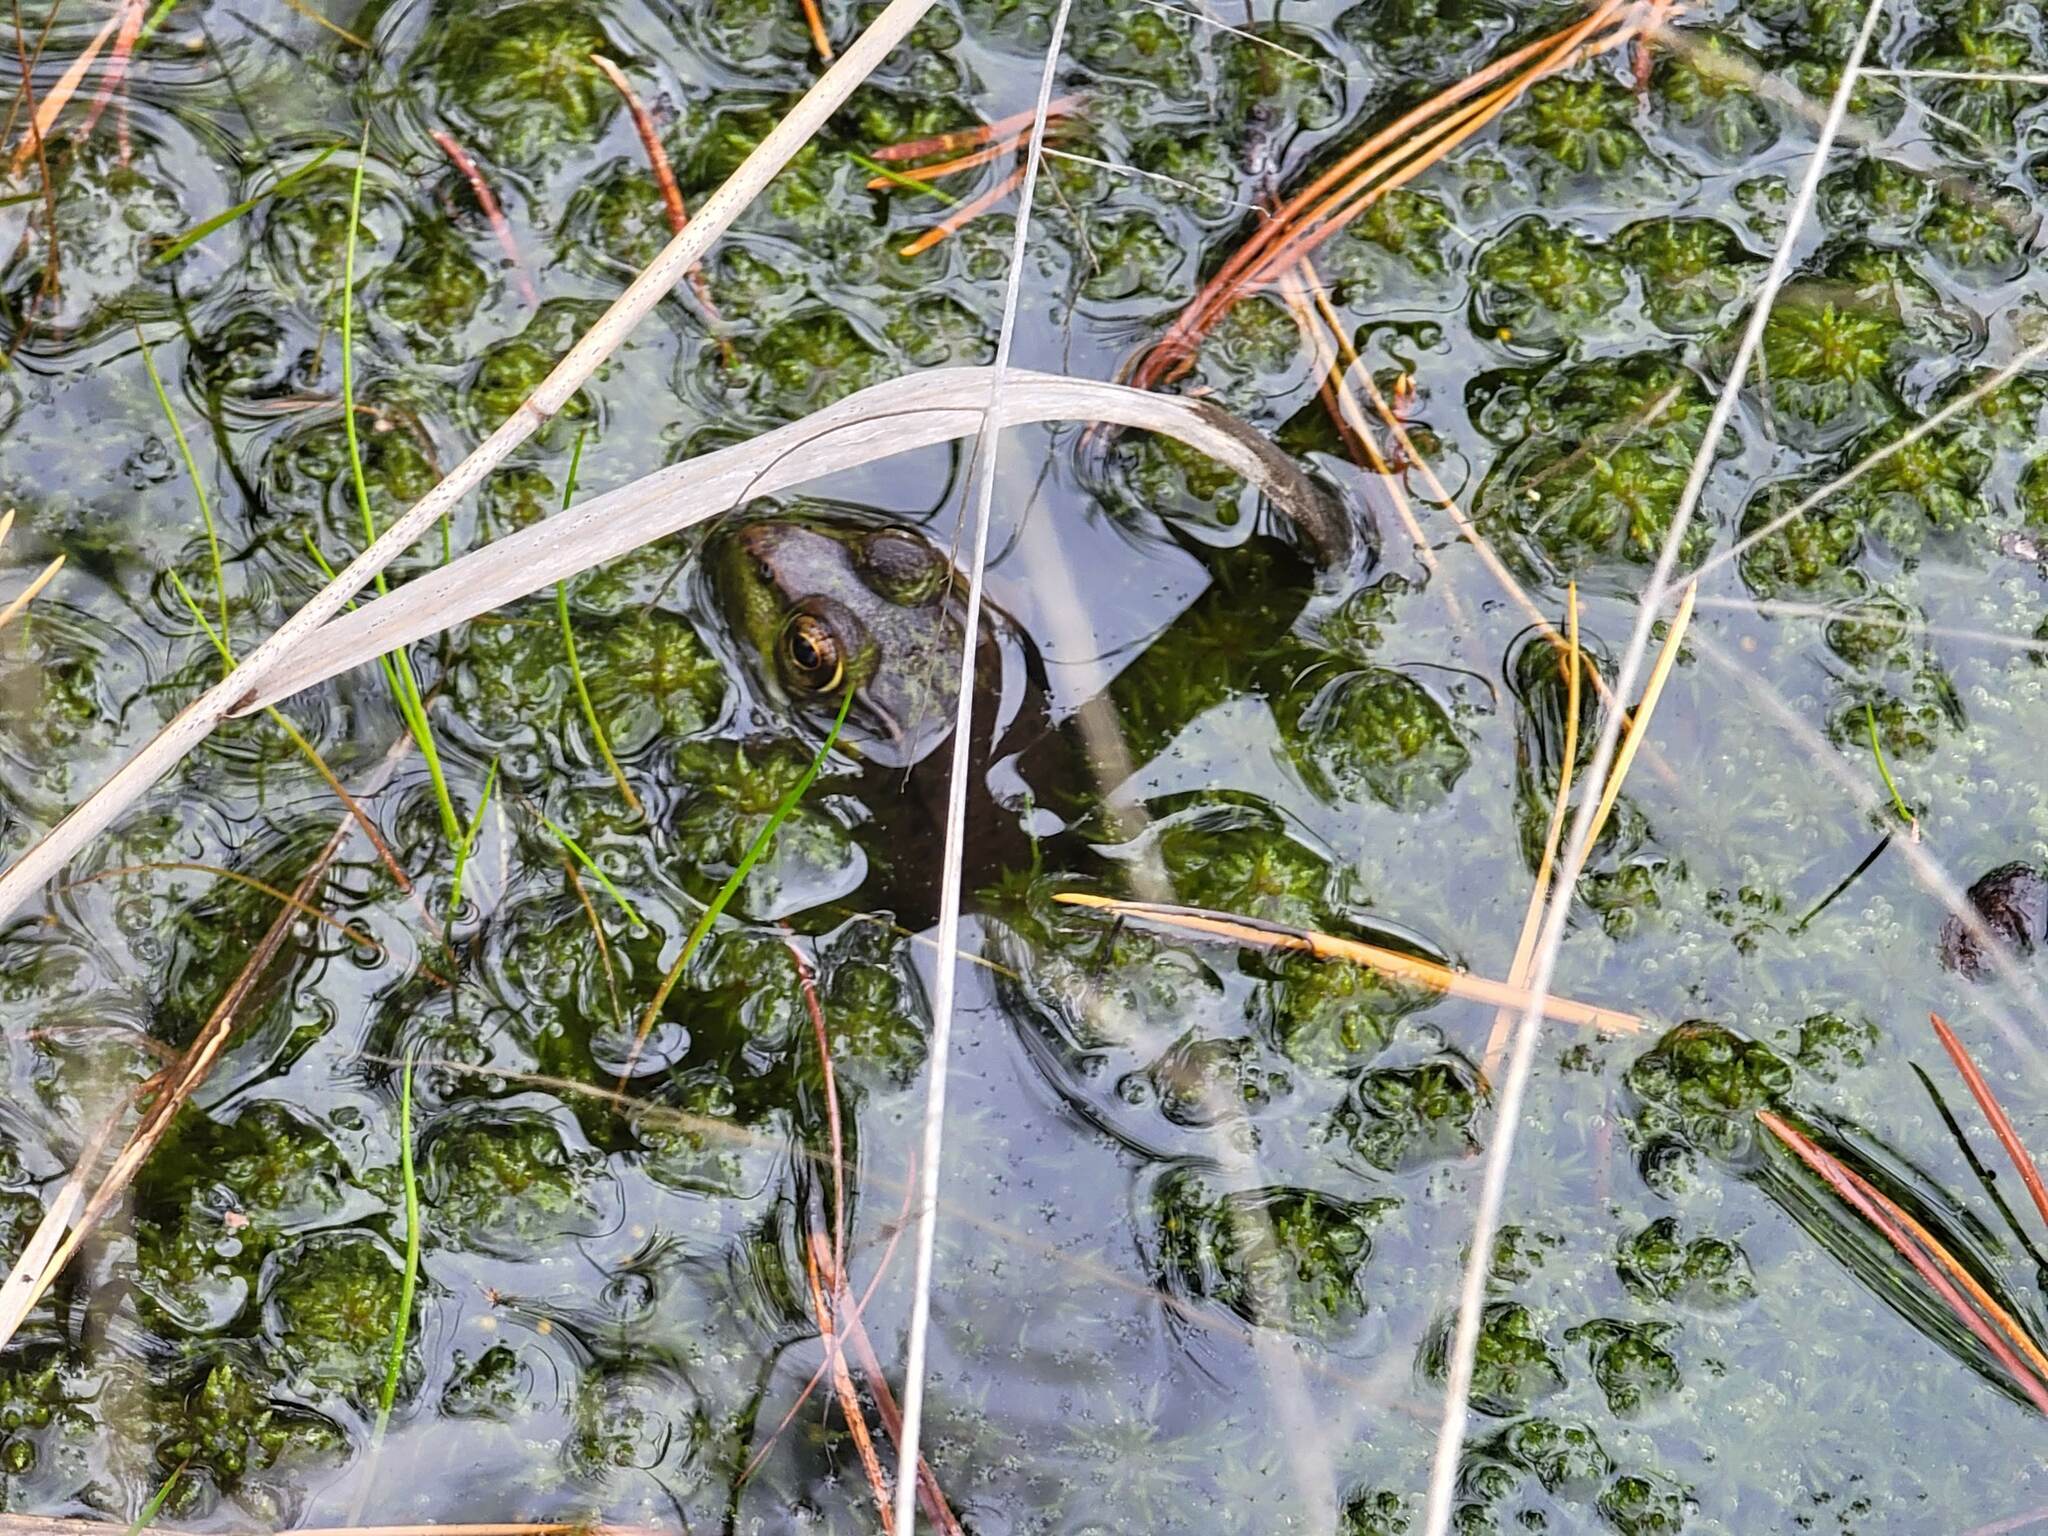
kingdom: Animalia
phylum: Chordata
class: Amphibia
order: Anura
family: Ranidae
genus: Lithobates
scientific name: Lithobates clamitans
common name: Green frog
